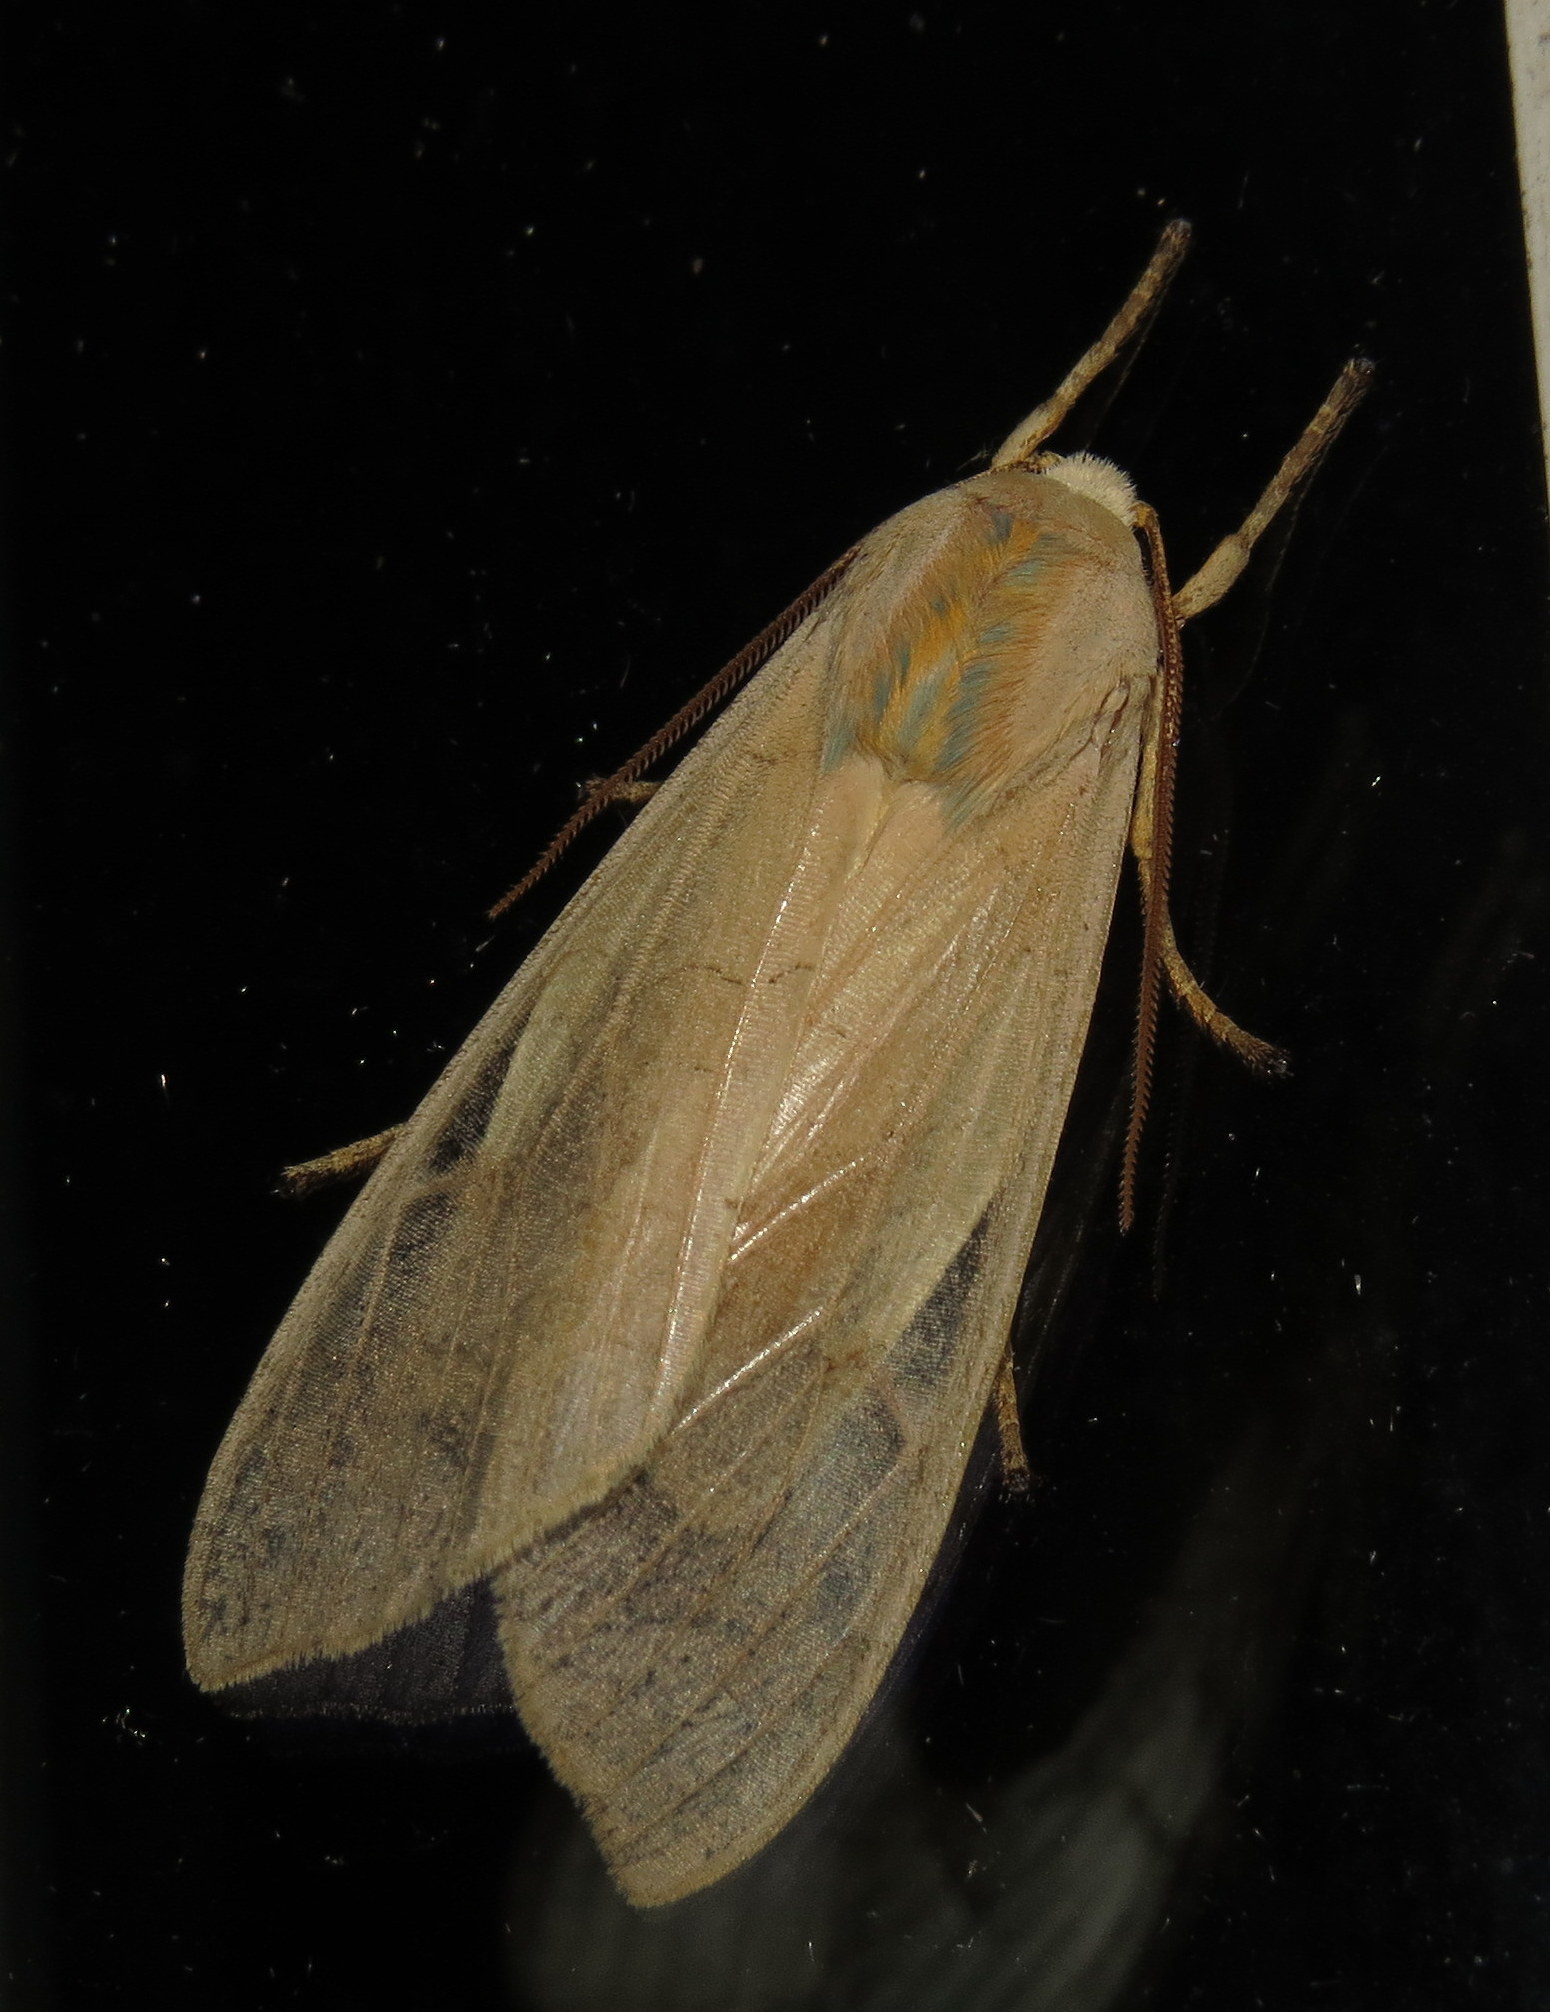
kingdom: Animalia
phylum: Arthropoda
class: Insecta
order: Lepidoptera
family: Erebidae
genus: Halysidota
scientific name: Halysidota
